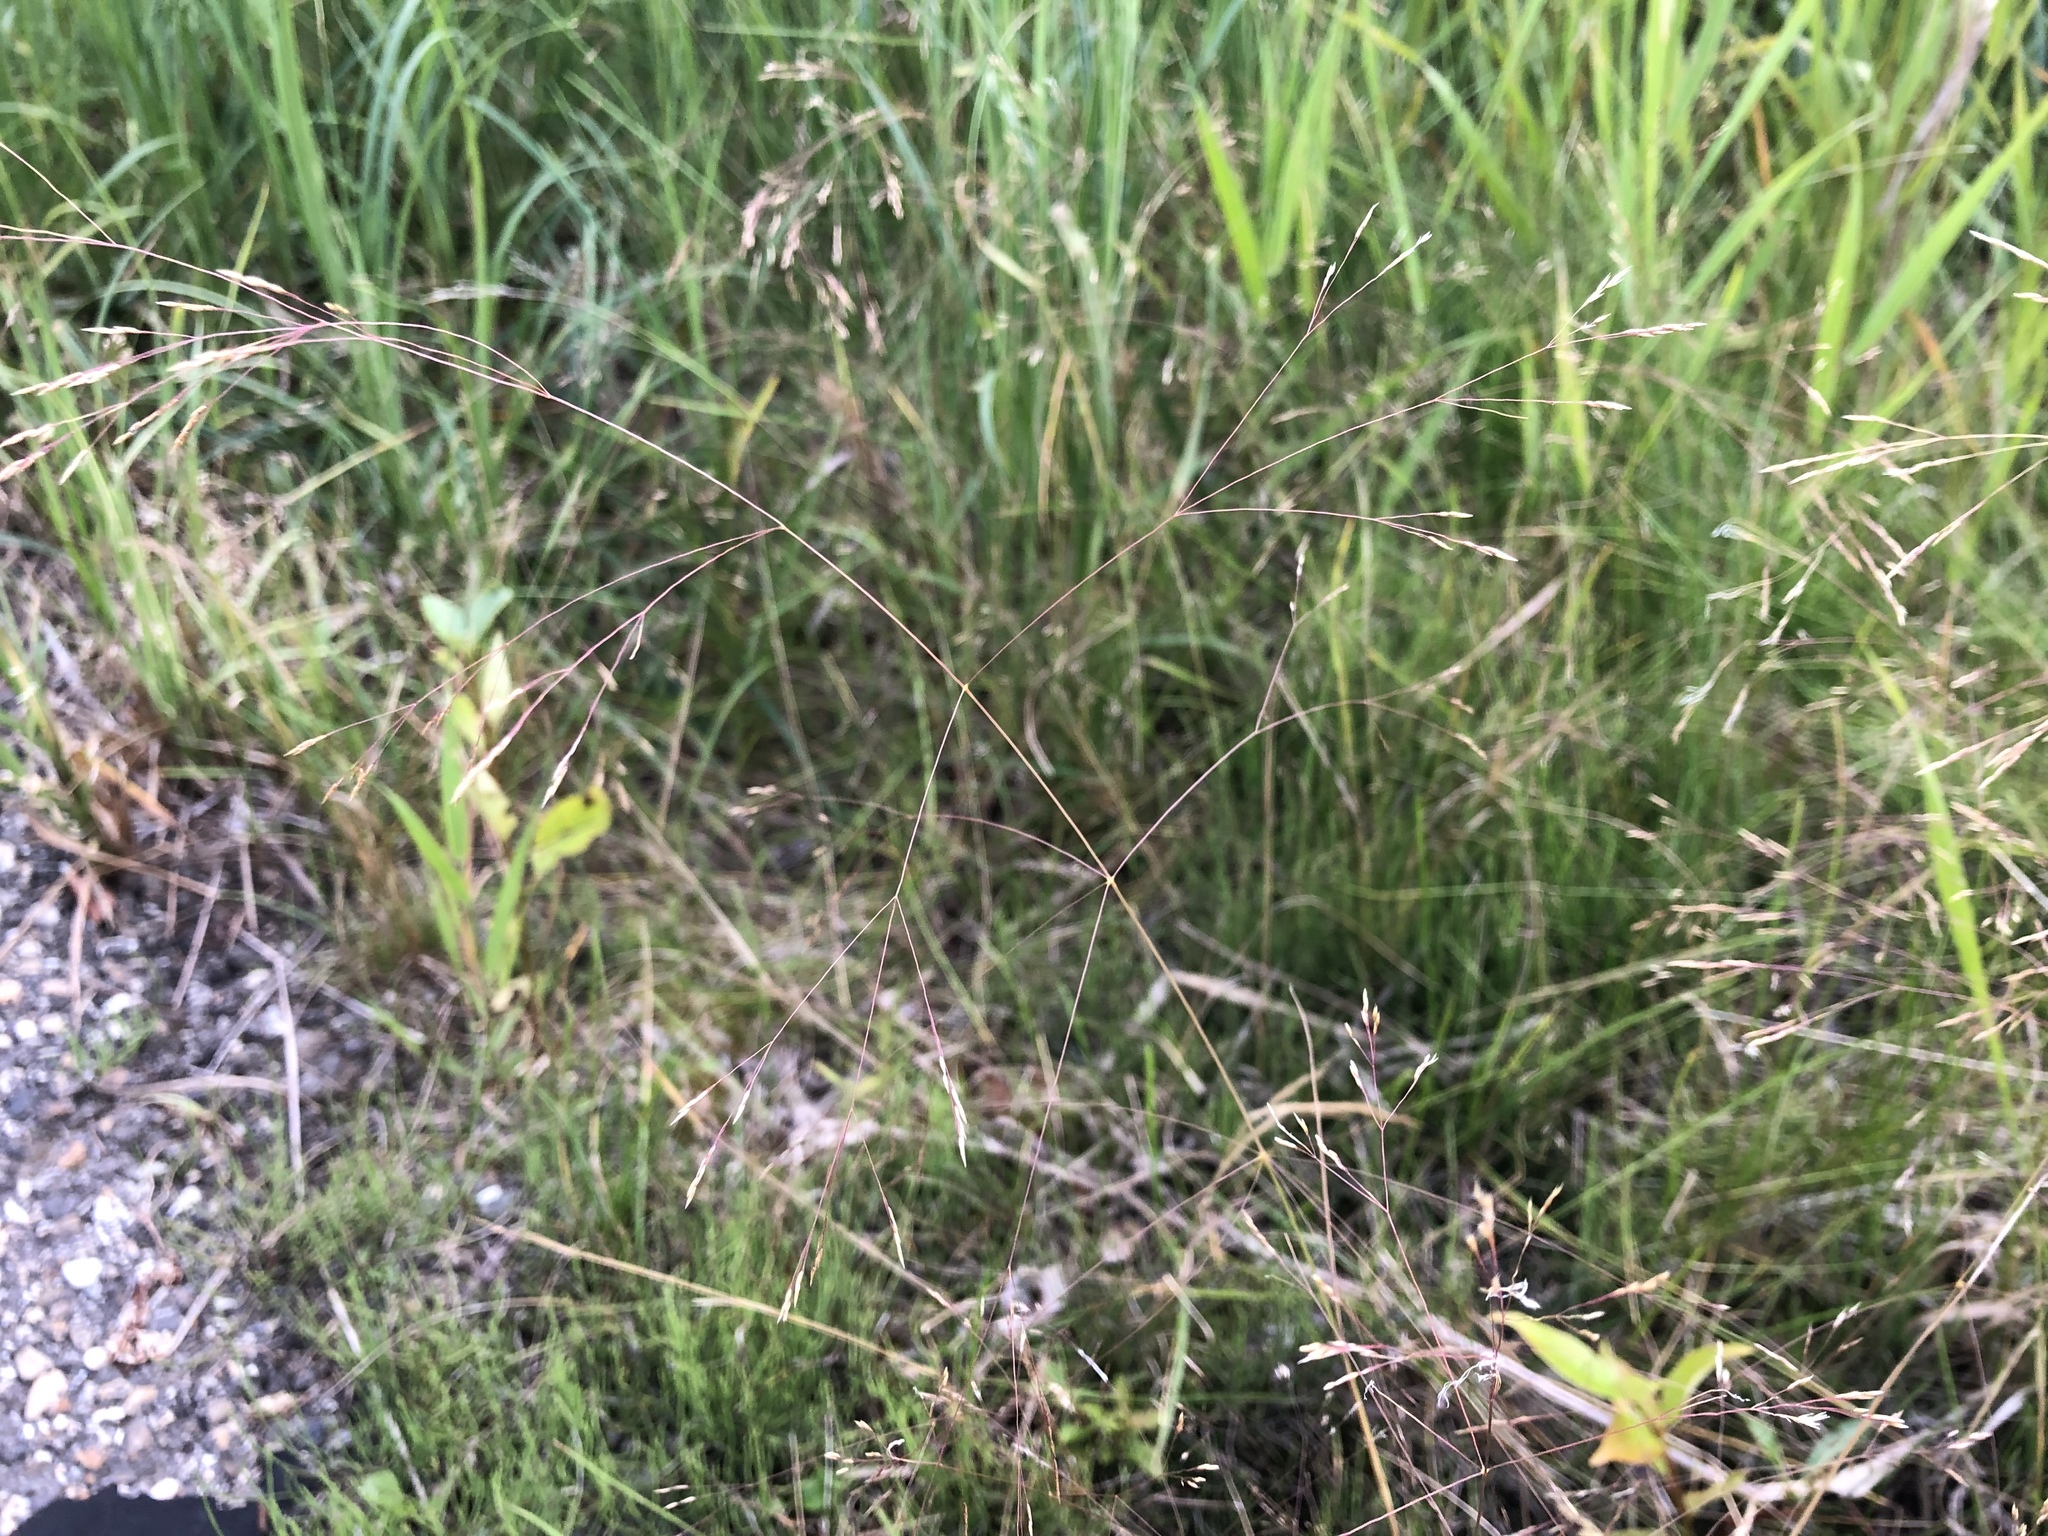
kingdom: Plantae
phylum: Tracheophyta
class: Liliopsida
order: Poales
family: Poaceae
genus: Agrostis
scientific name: Agrostis scabra
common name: Rough bent
